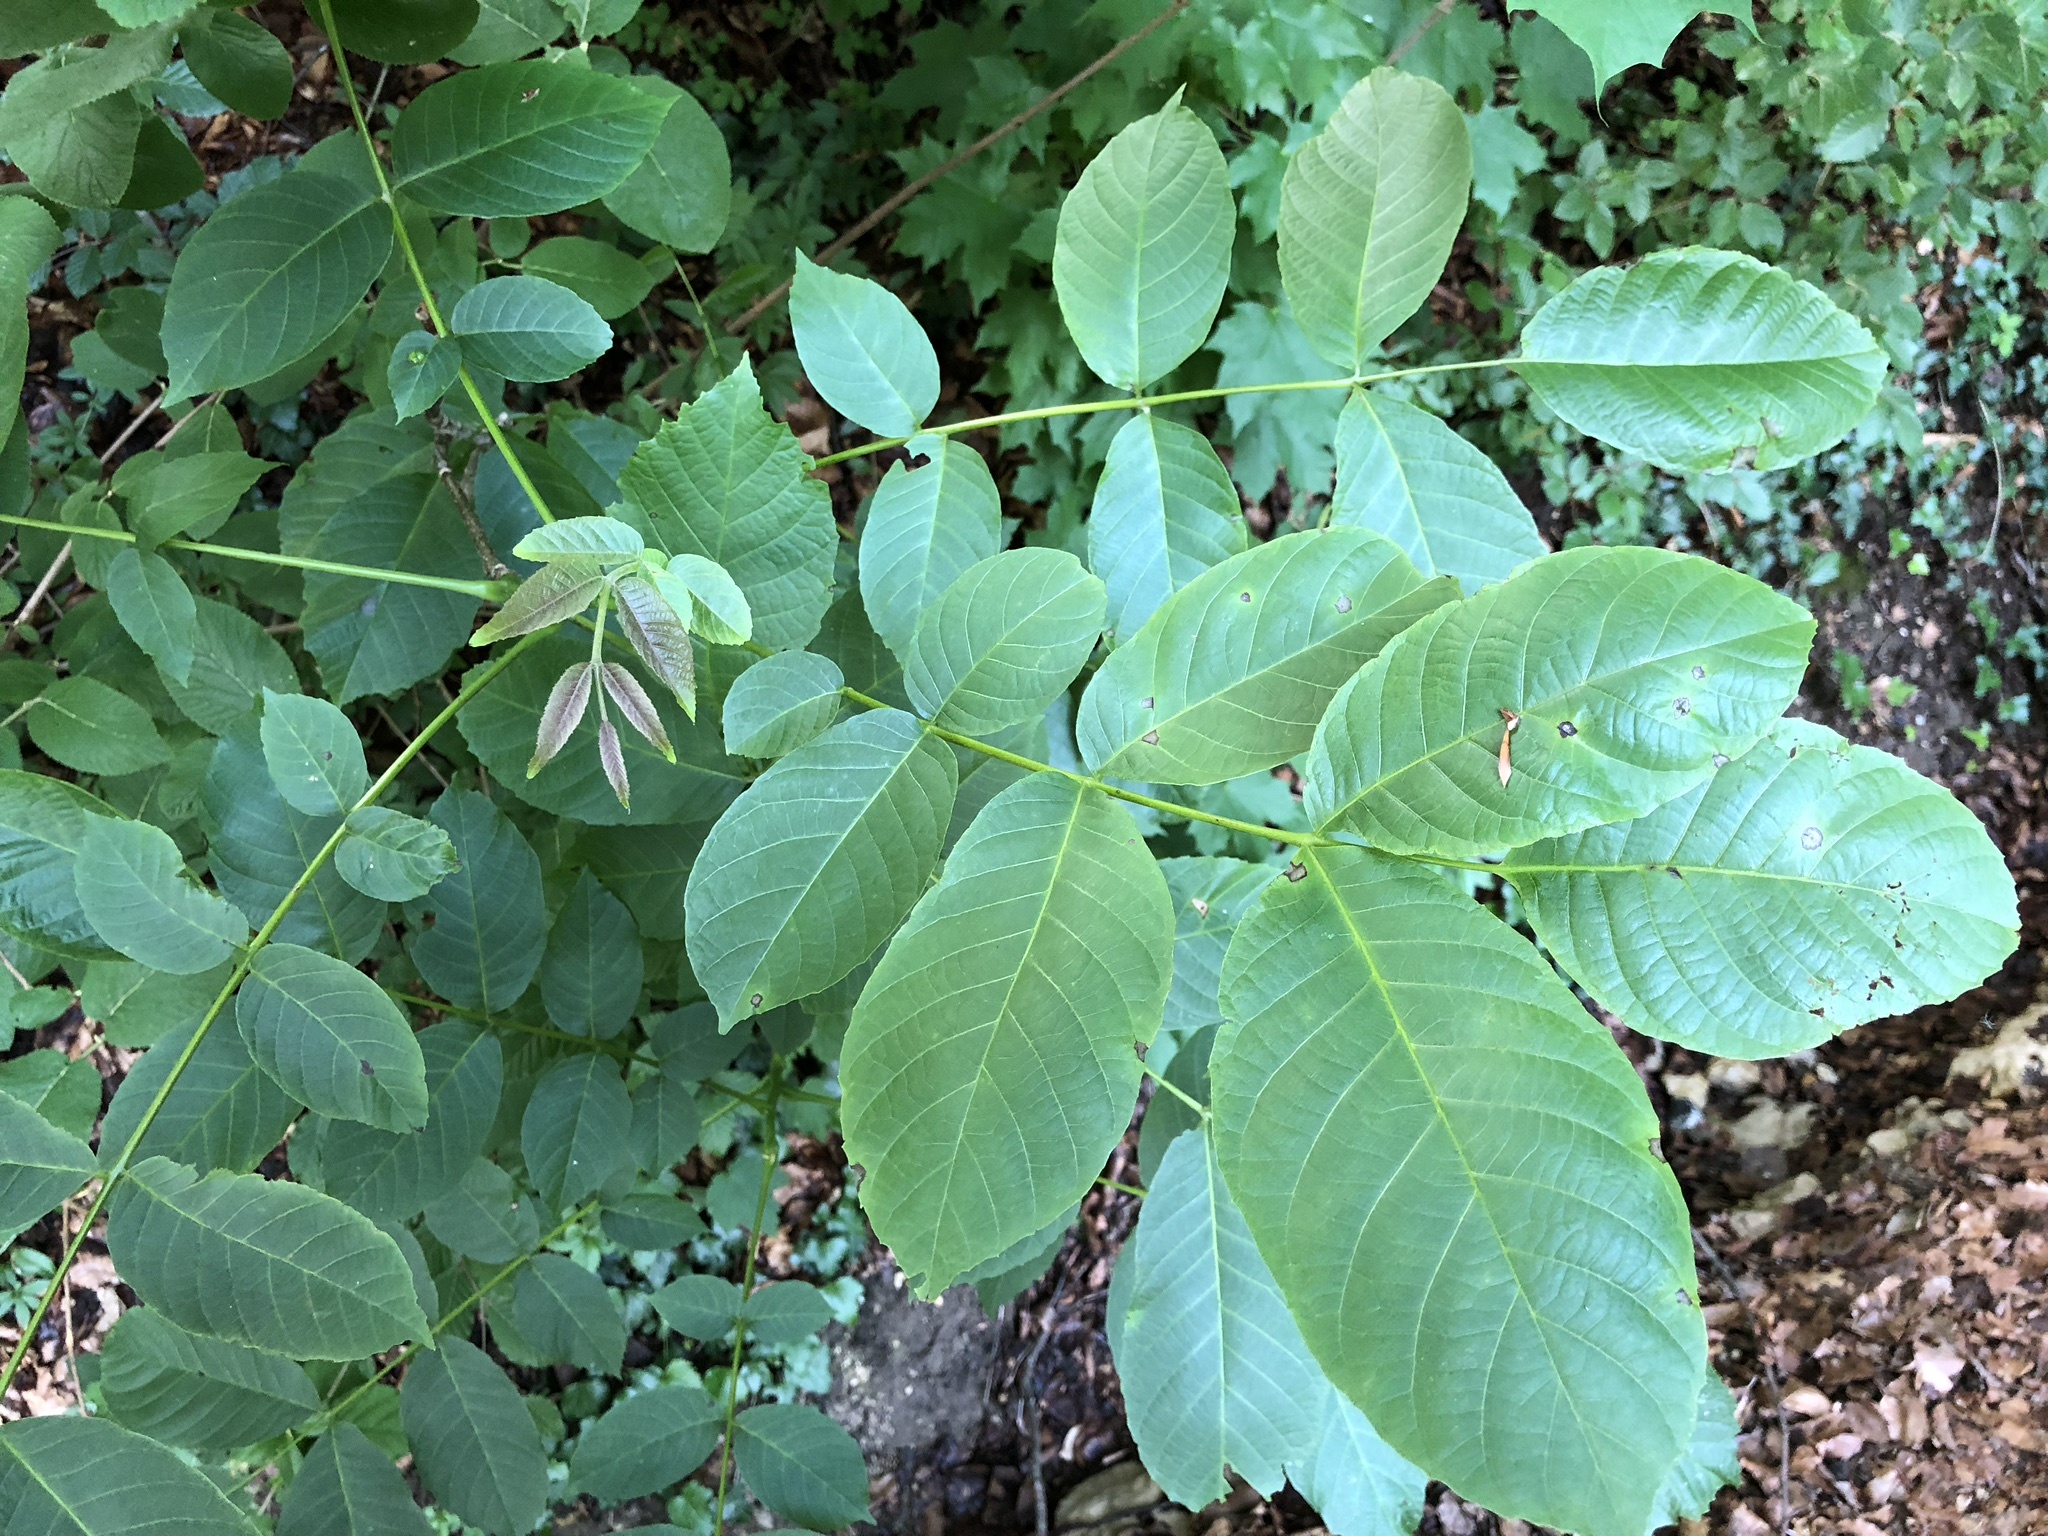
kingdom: Plantae
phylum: Tracheophyta
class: Magnoliopsida
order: Fagales
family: Juglandaceae
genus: Juglans
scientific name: Juglans regia
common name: Walnut
